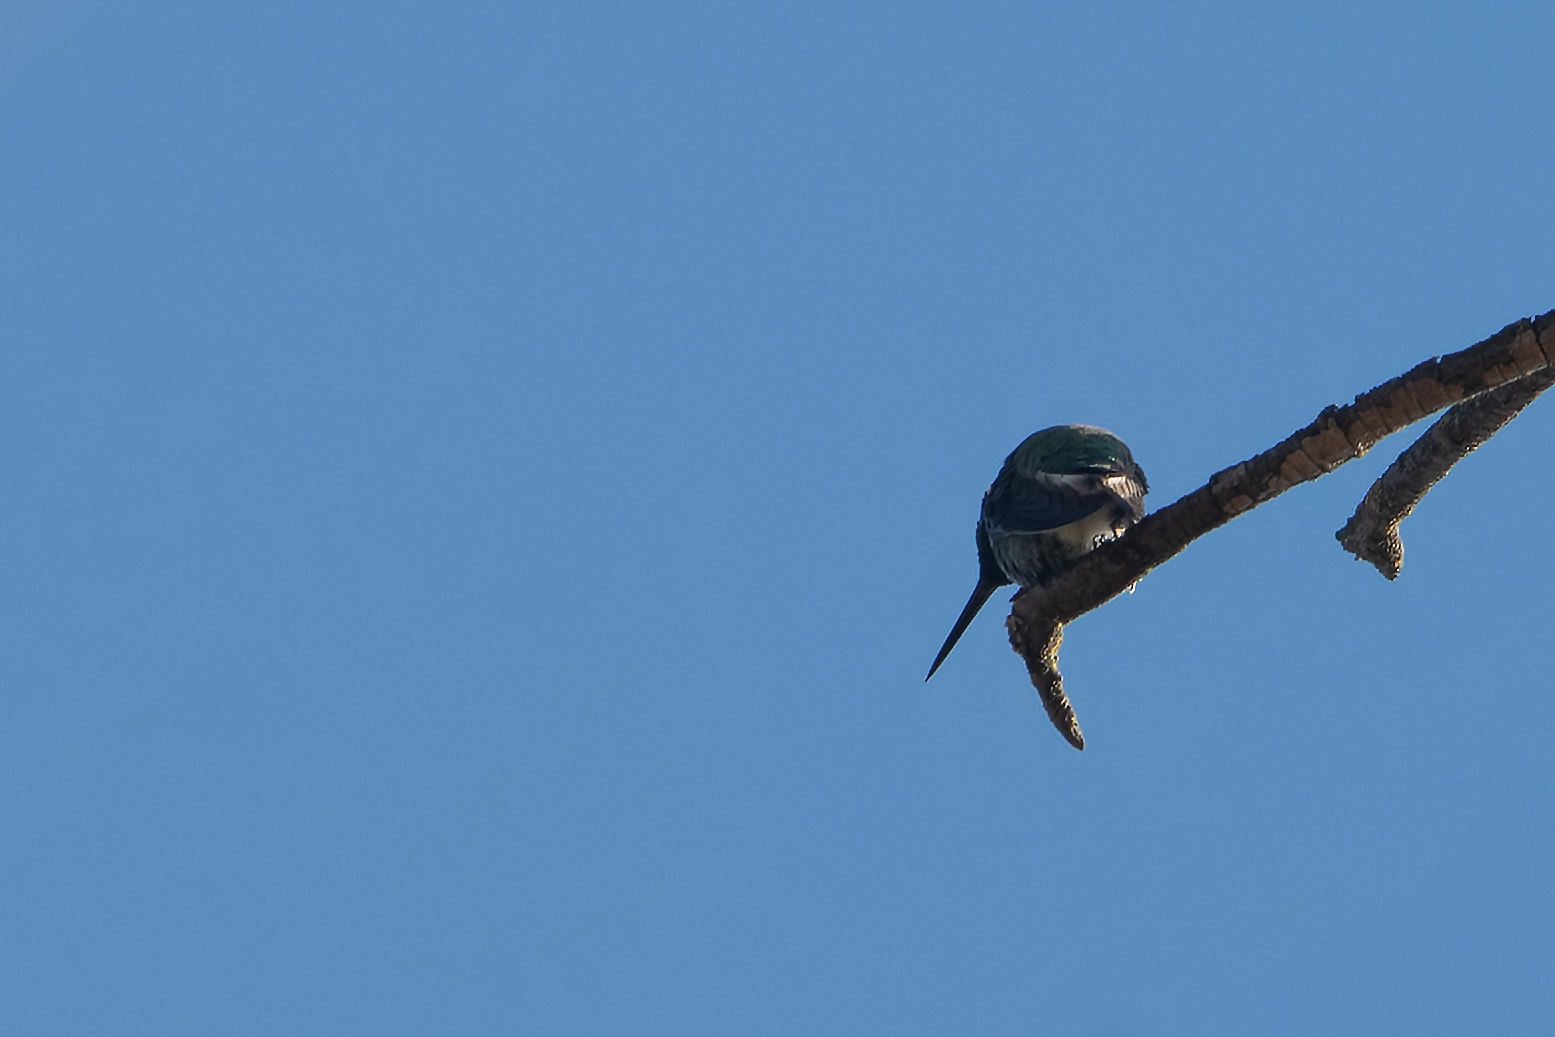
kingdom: Animalia
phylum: Chordata
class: Aves
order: Apodiformes
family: Trochilidae
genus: Calypte
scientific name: Calypte anna
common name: Anna's hummingbird
